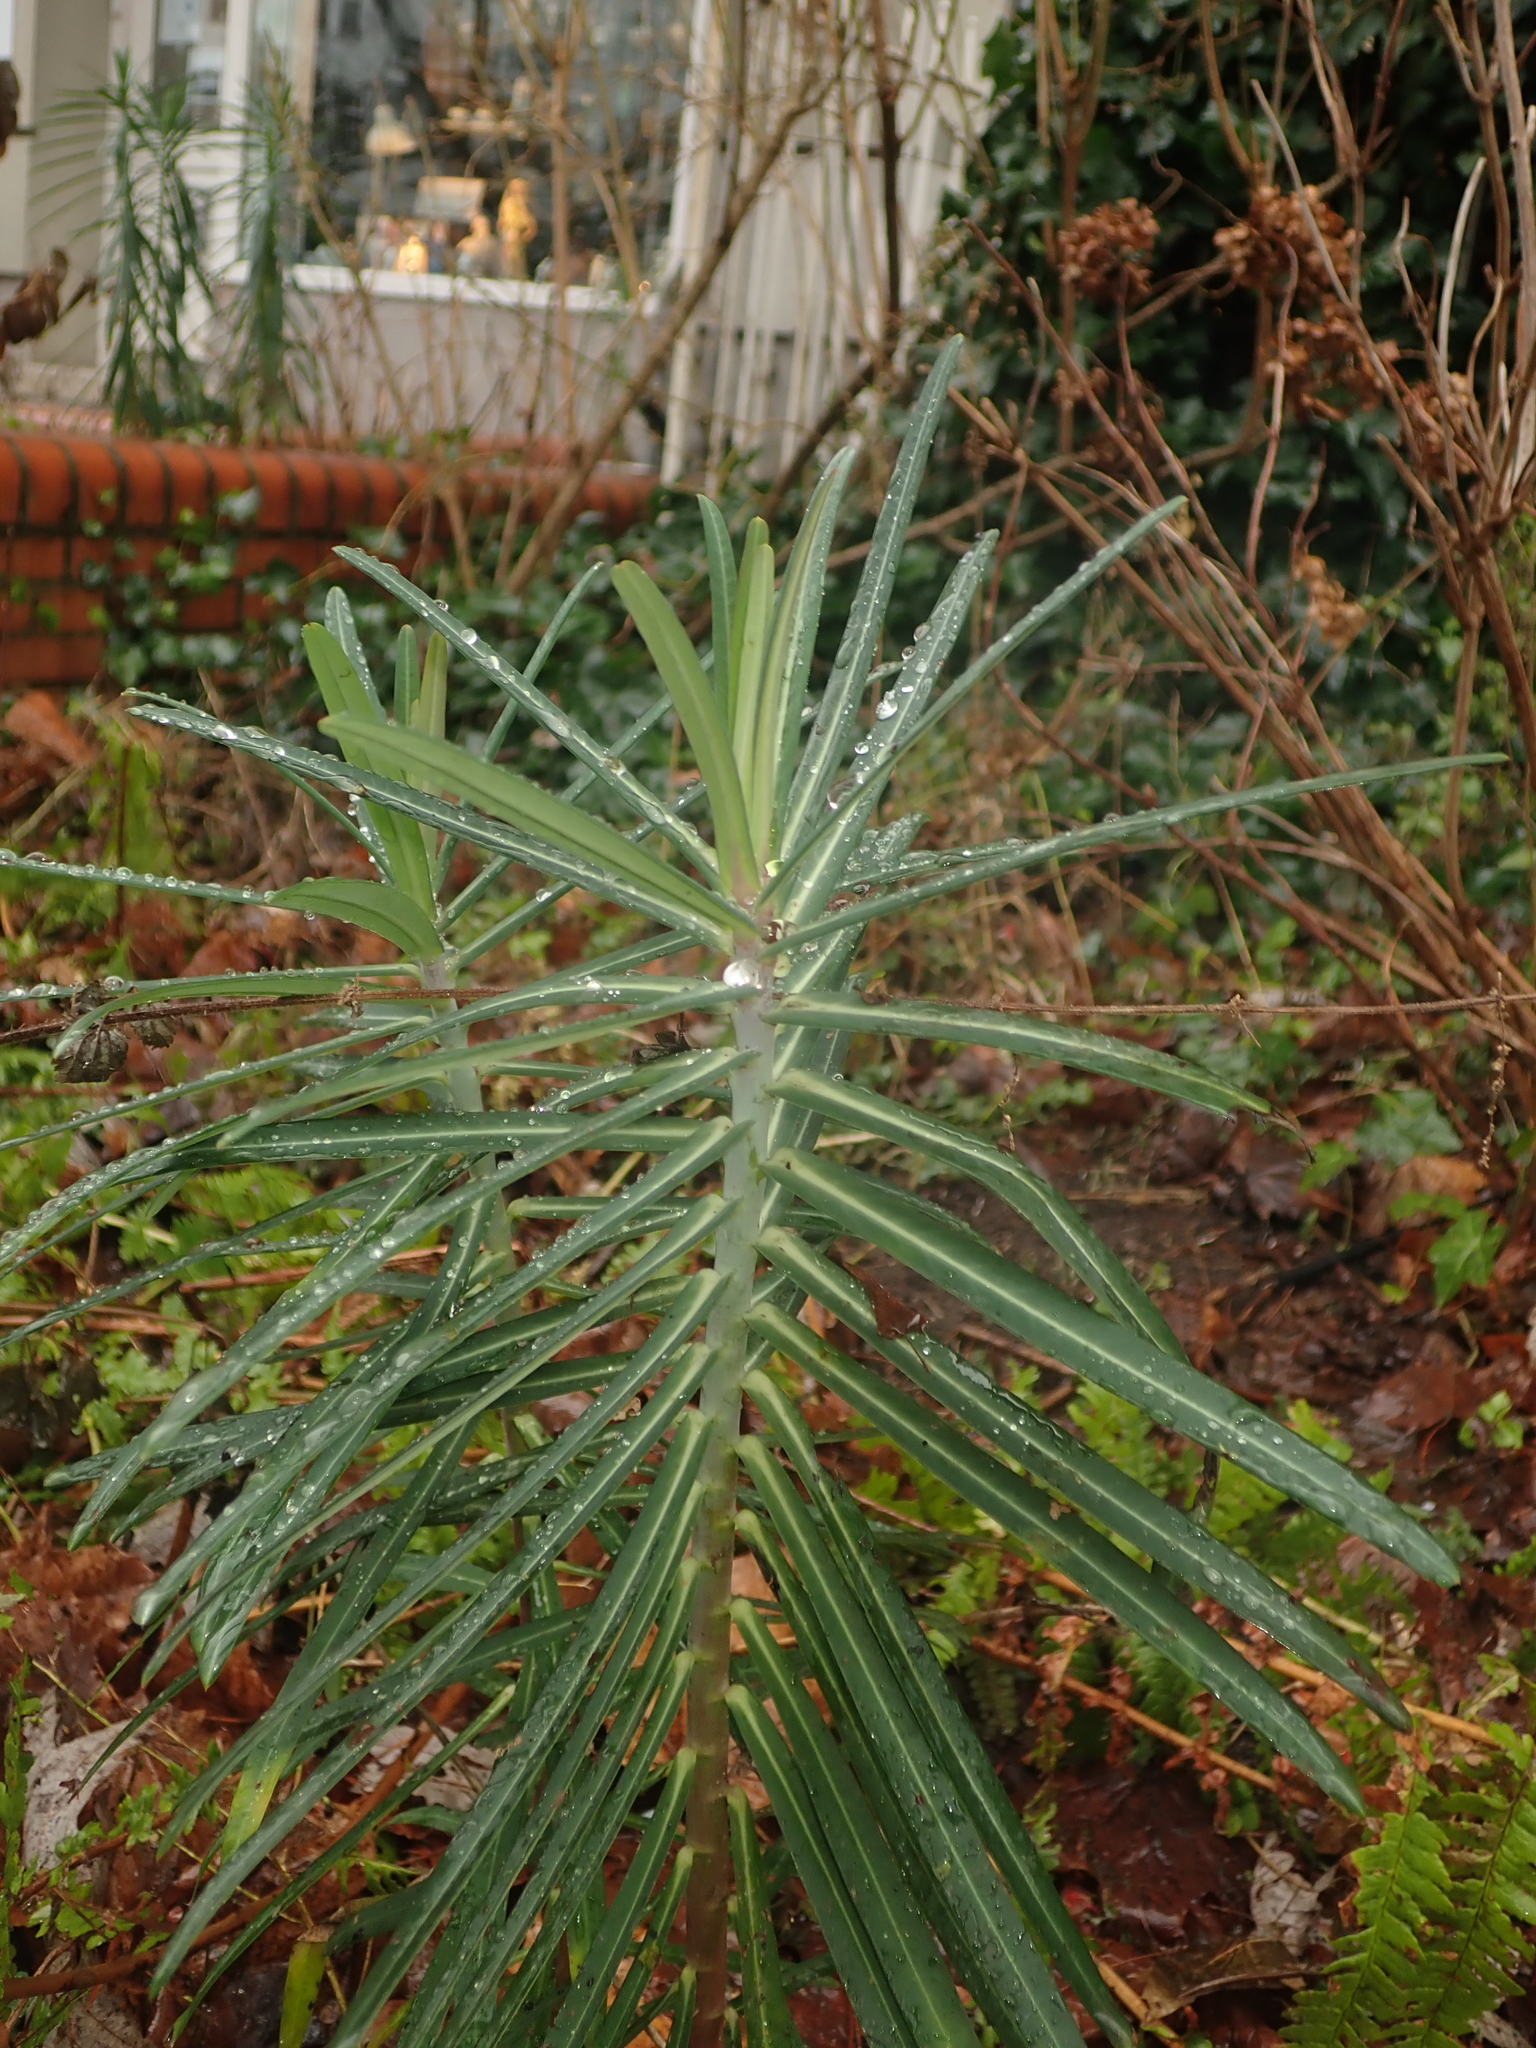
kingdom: Plantae
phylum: Tracheophyta
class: Magnoliopsida
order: Malpighiales
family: Euphorbiaceae
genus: Euphorbia
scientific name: Euphorbia lathyris
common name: Caper spurge
